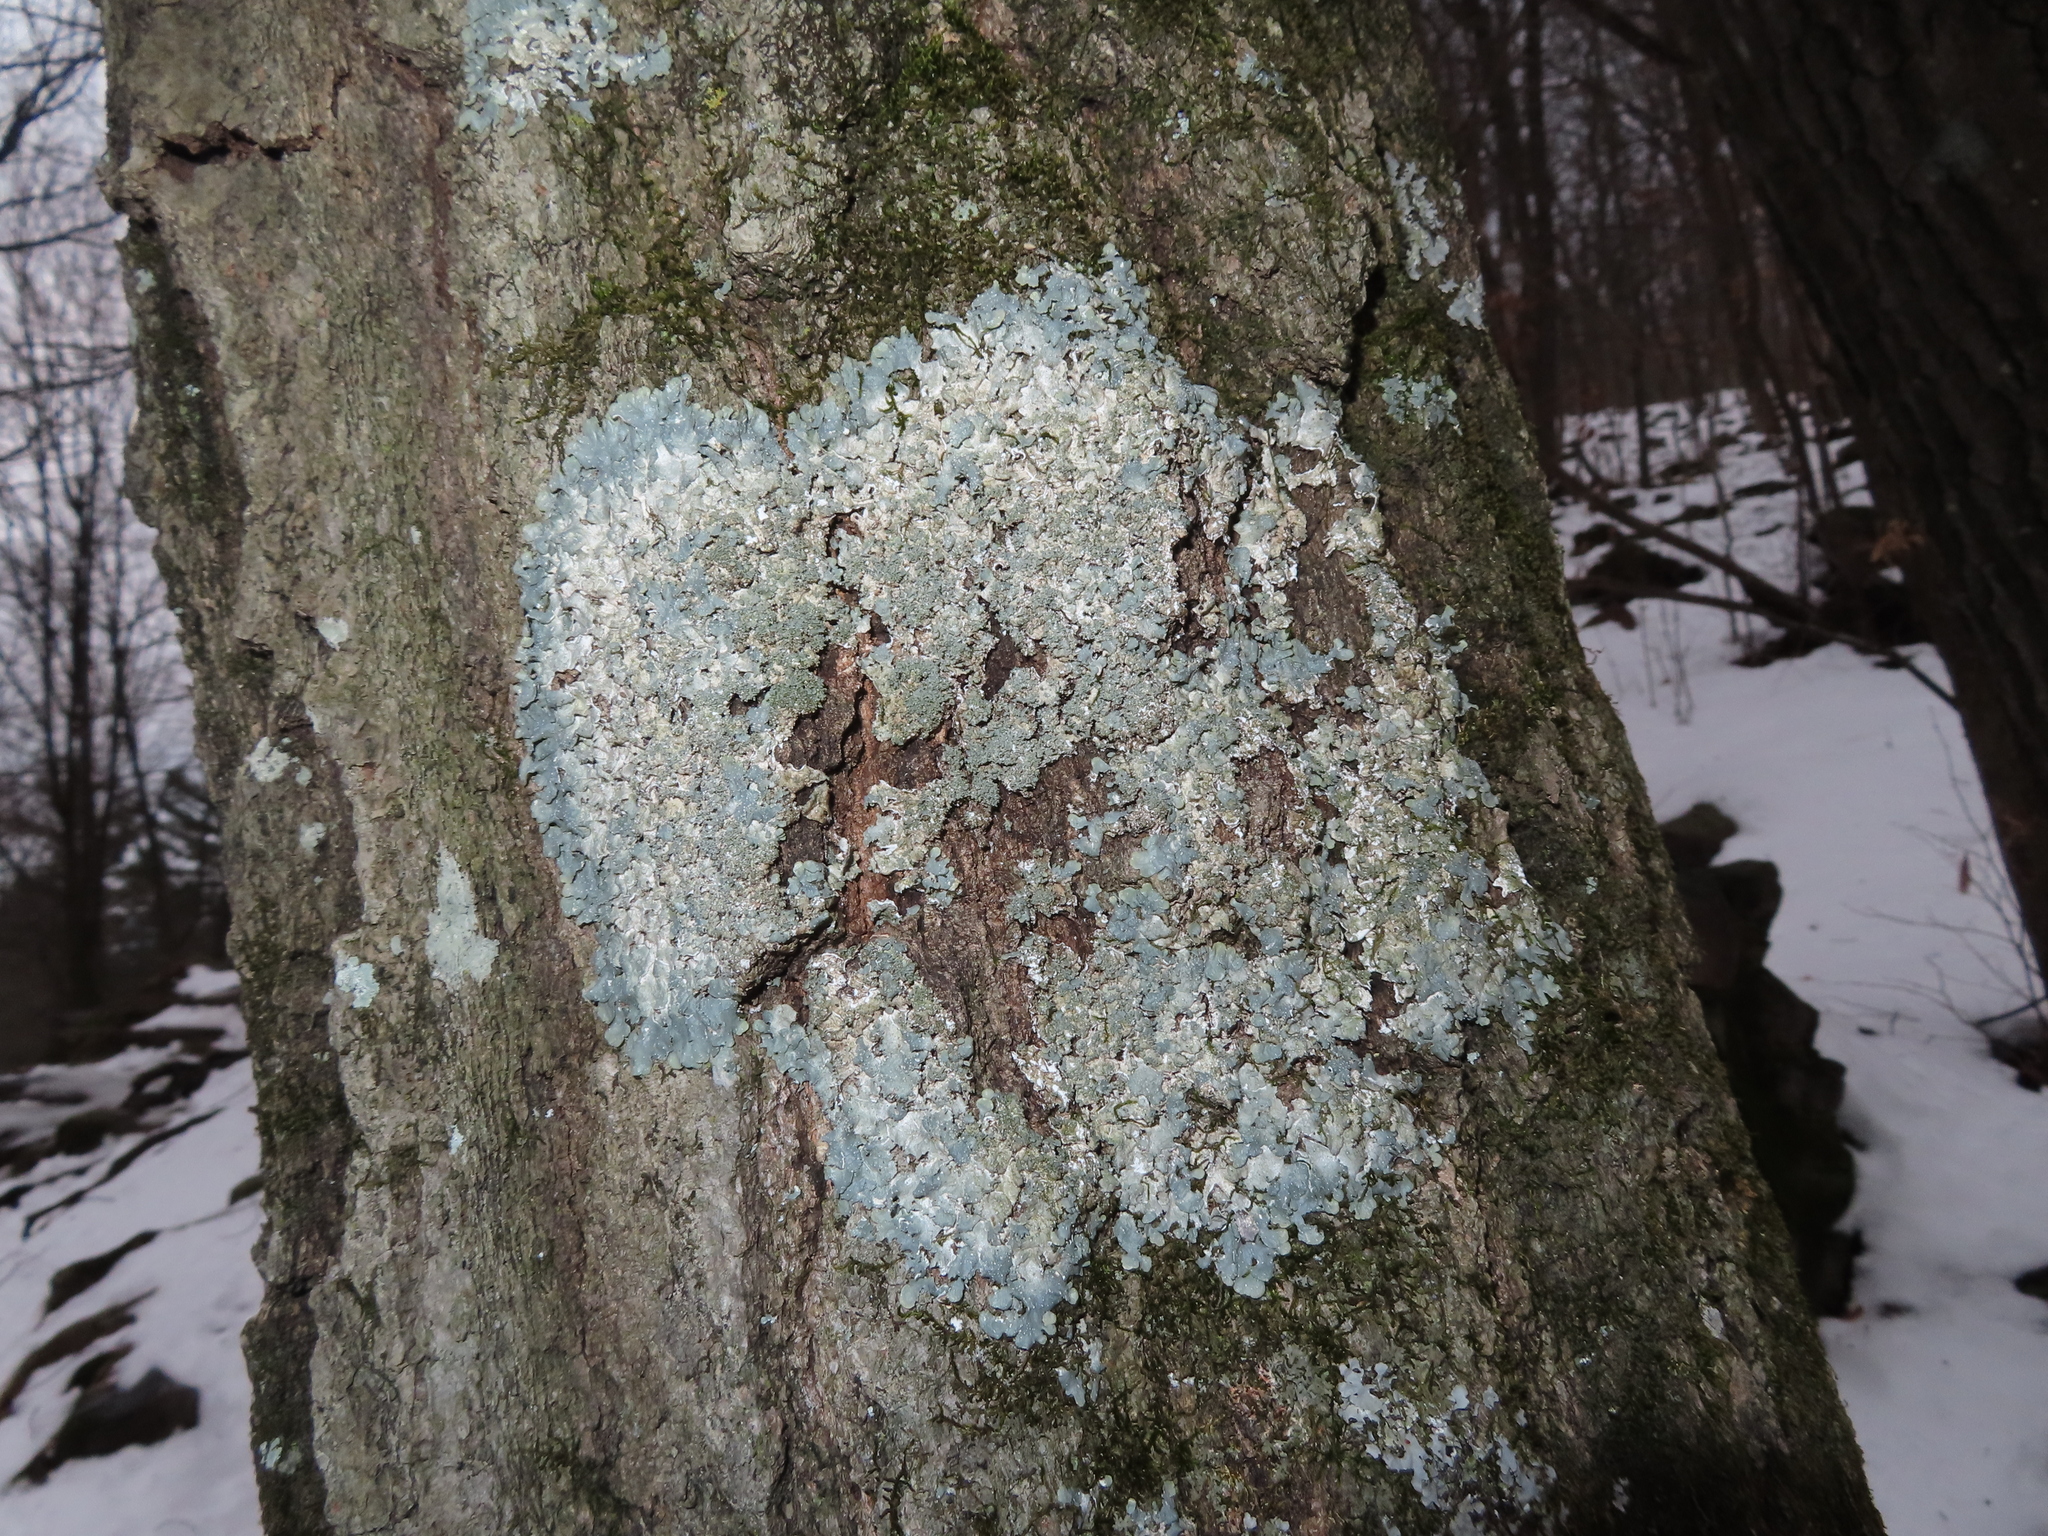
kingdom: Fungi
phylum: Ascomycota
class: Lecanoromycetes
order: Lecanorales
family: Parmeliaceae
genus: Punctelia
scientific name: Punctelia rudecta
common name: Rough speckled shield lichen
